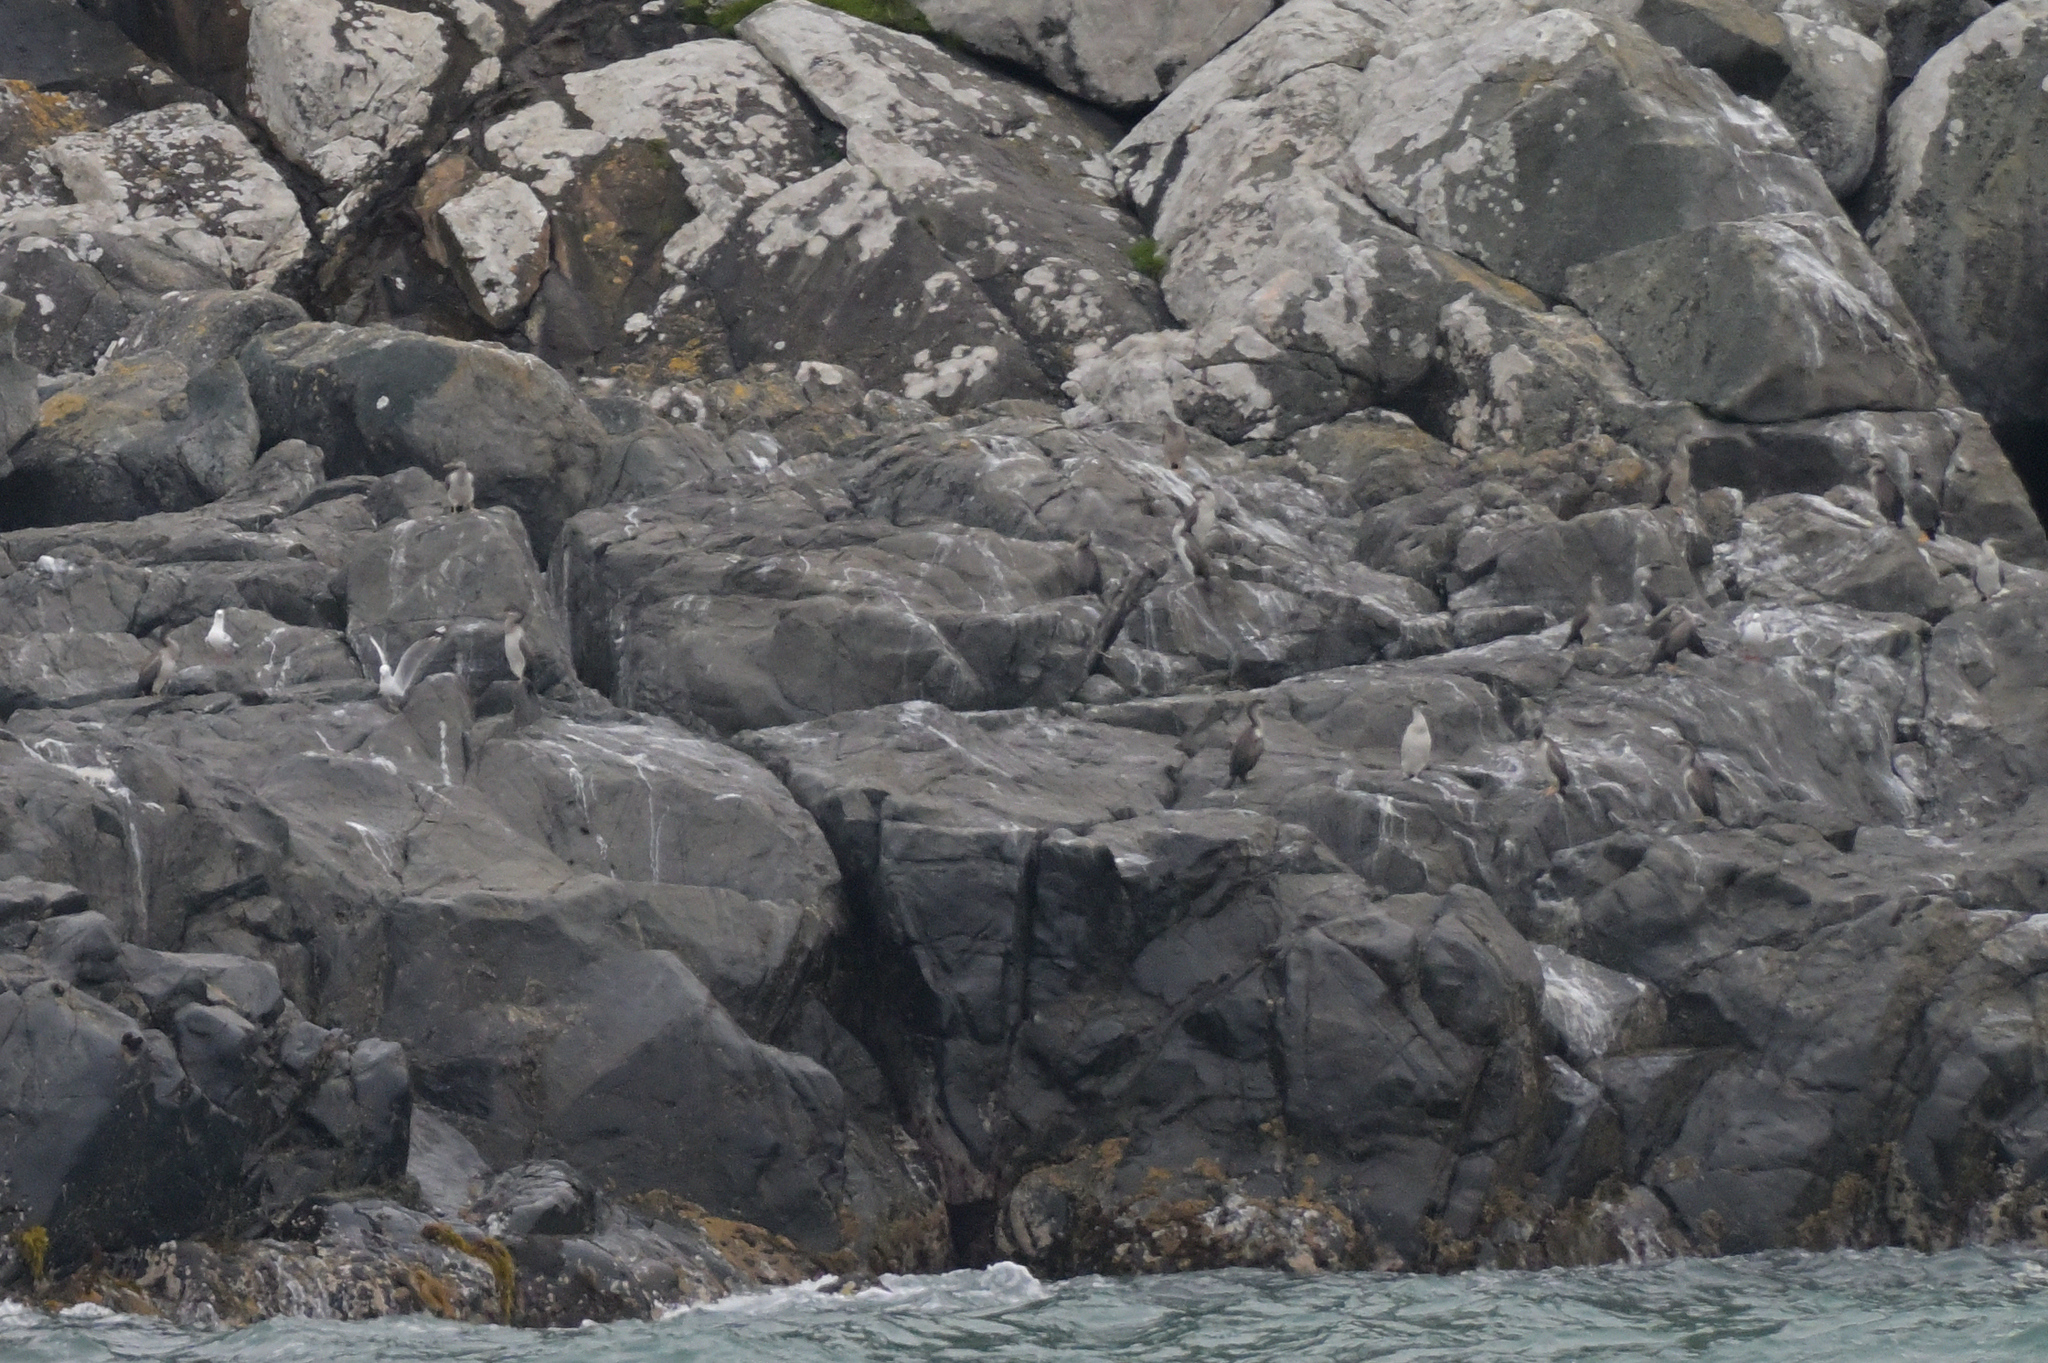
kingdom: Animalia
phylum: Chordata
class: Aves
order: Suliformes
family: Phalacrocoracidae
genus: Phalacrocorax
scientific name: Phalacrocorax punctatus
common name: Spotted shag
